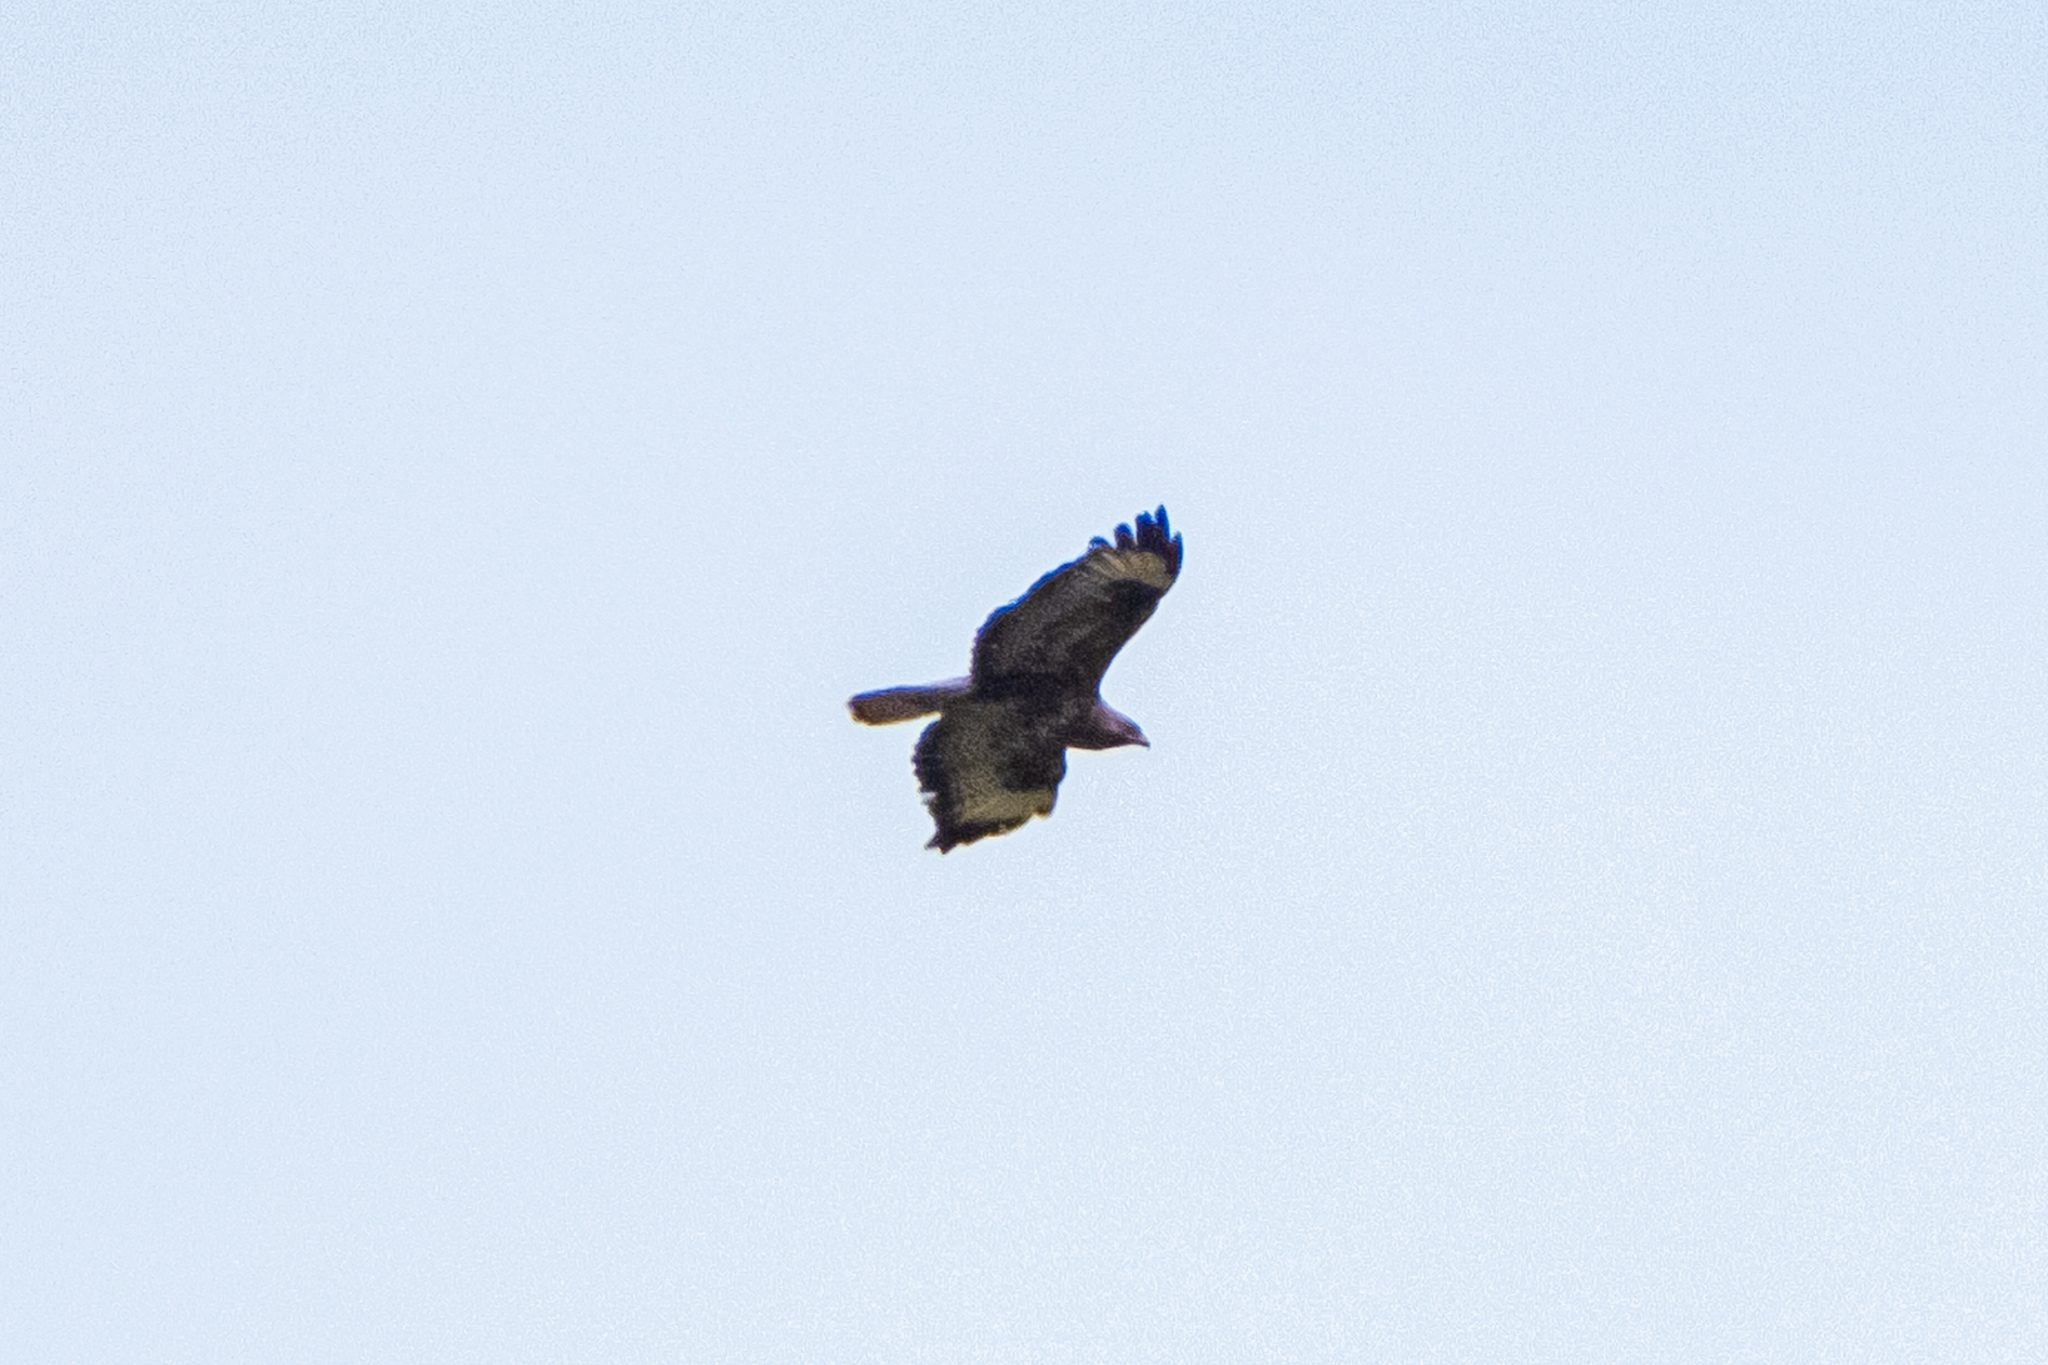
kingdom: Animalia
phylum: Chordata
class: Aves
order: Accipitriformes
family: Accipitridae
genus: Buteo
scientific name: Buteo buteo
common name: Common buzzard
